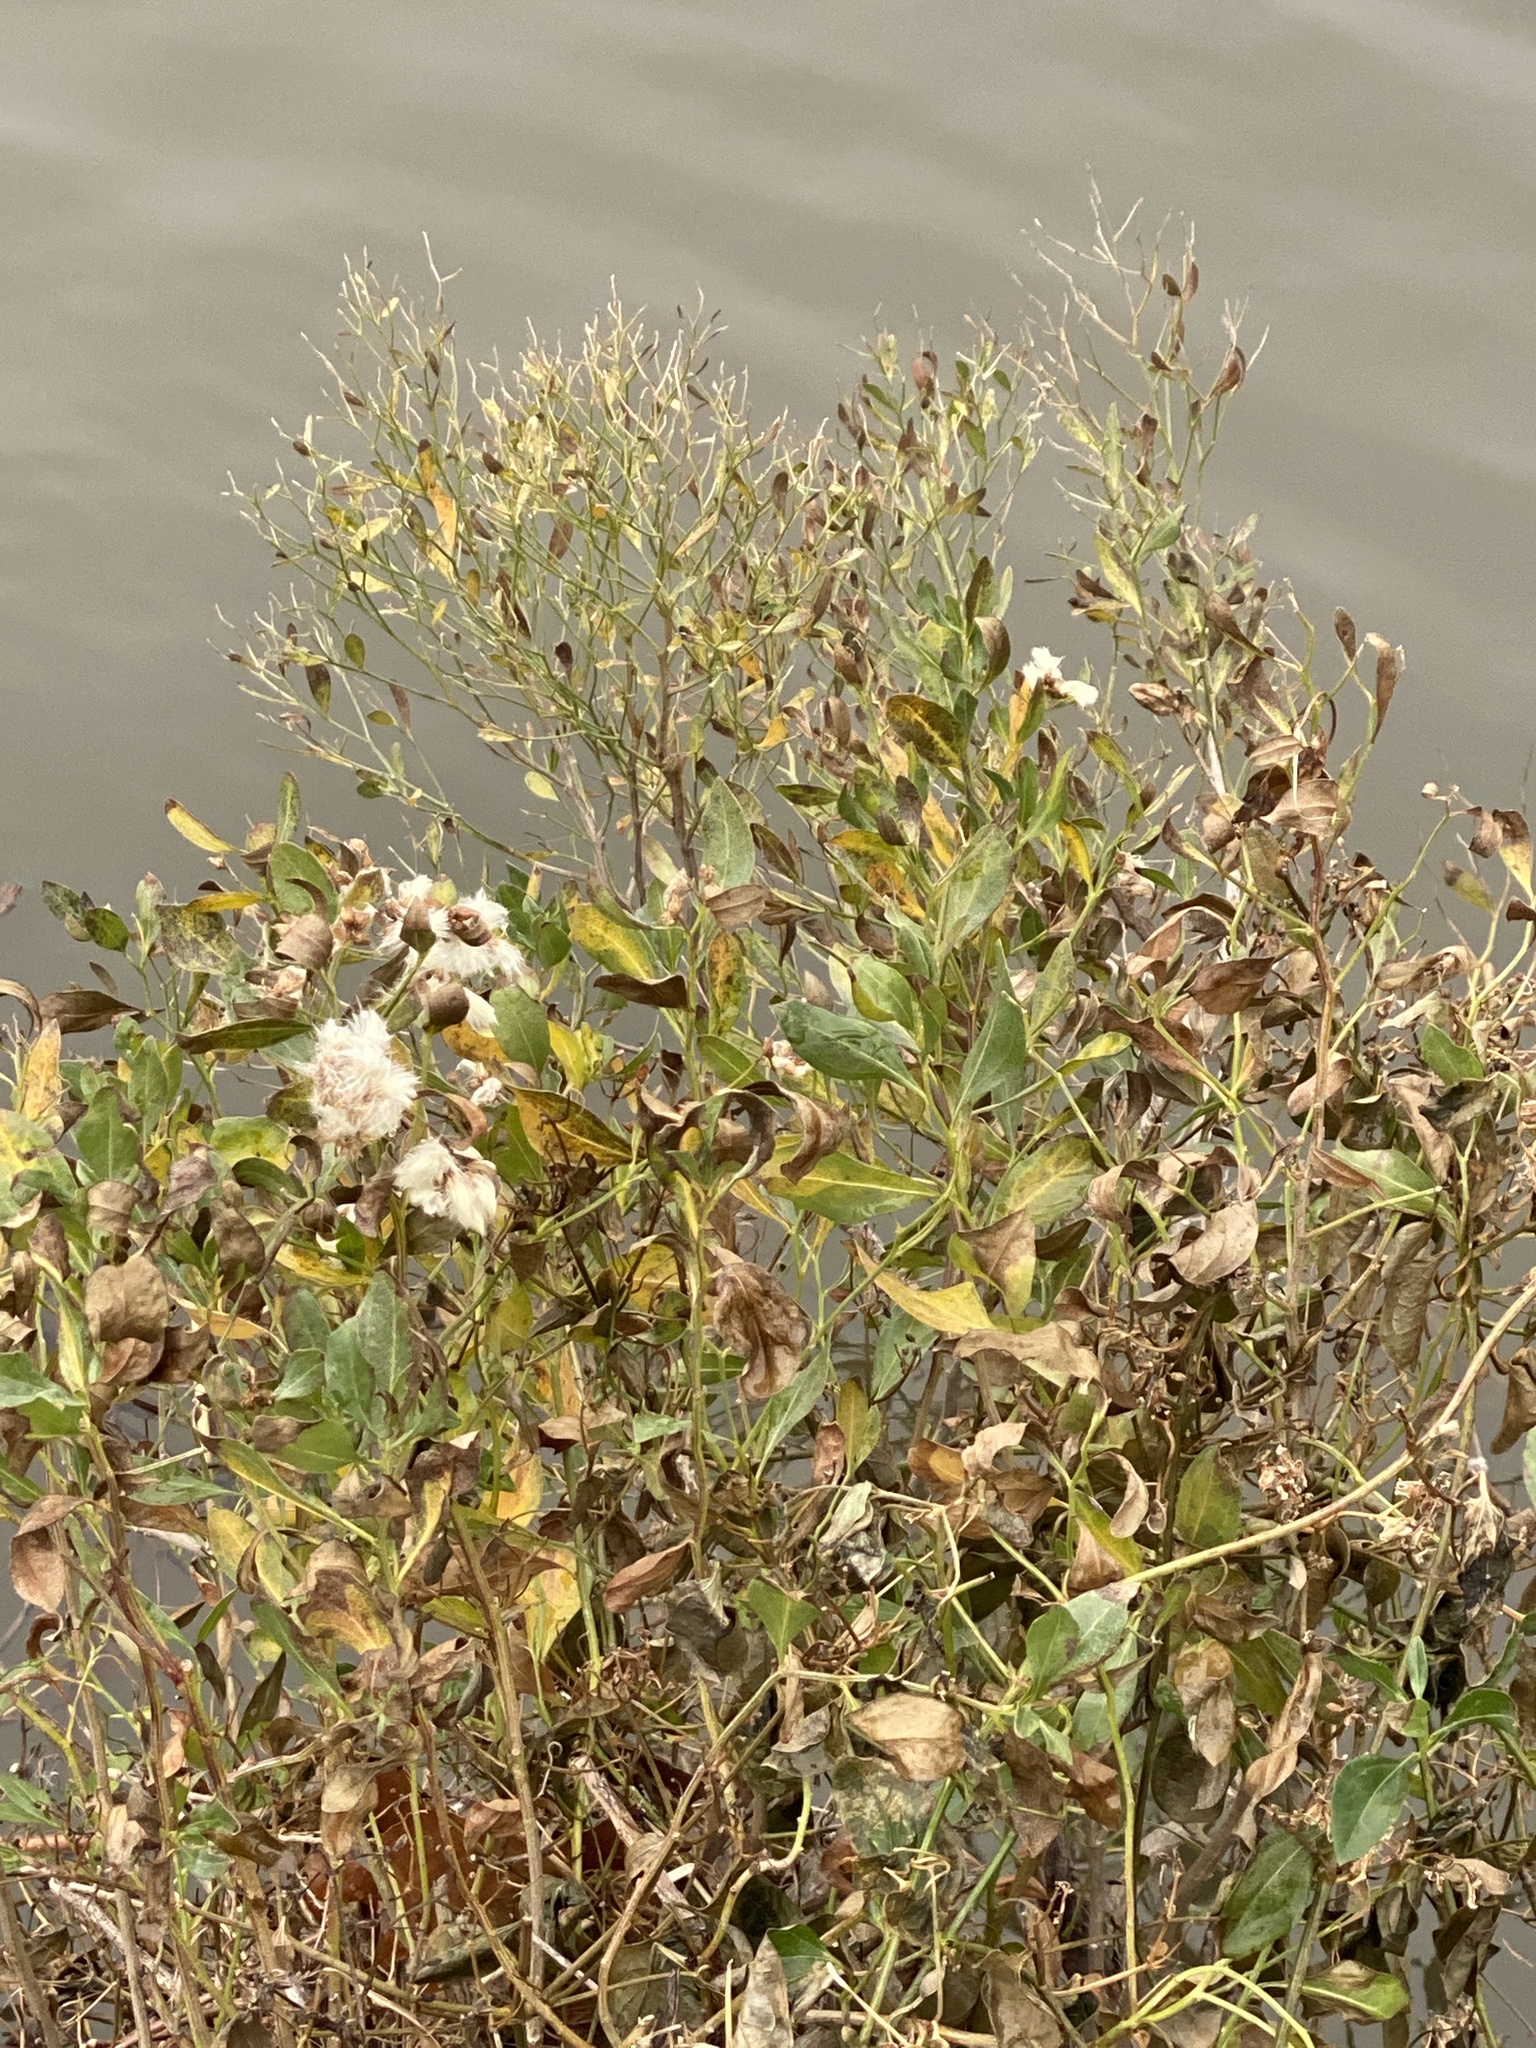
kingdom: Plantae
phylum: Tracheophyta
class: Magnoliopsida
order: Asterales
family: Asteraceae
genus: Baccharis
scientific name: Baccharis halimifolia
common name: Eastern baccharis
